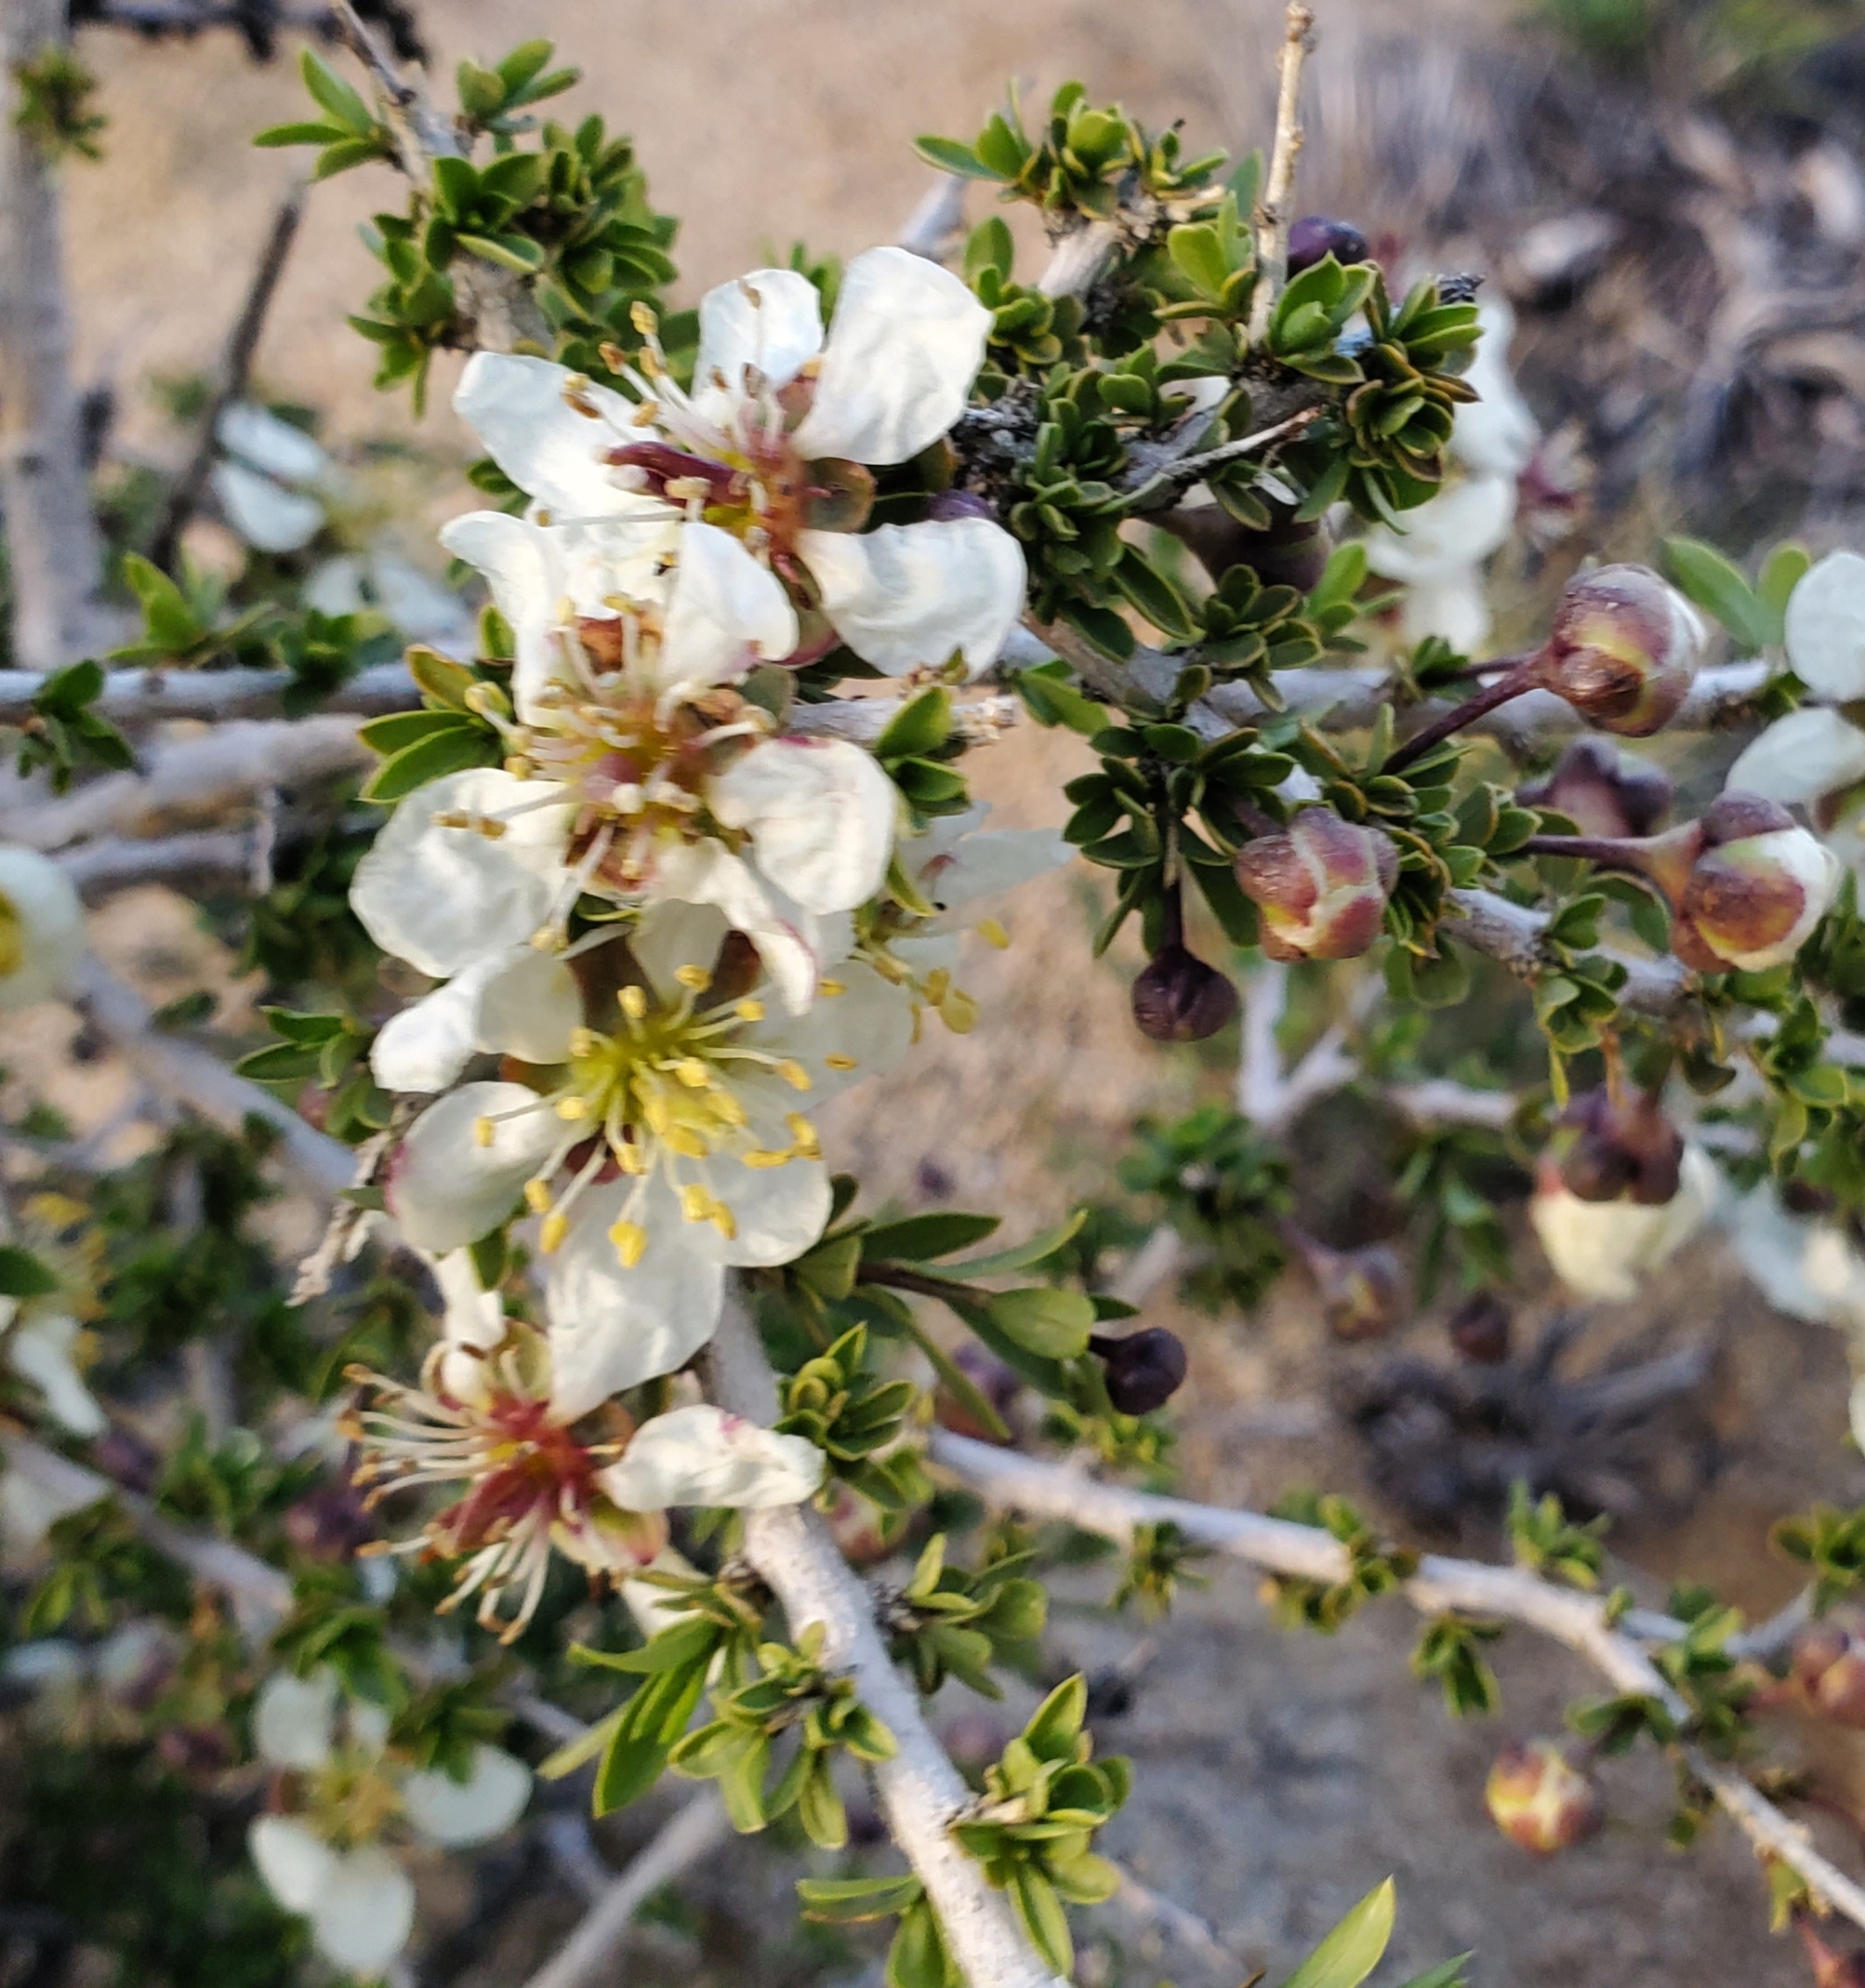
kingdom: Plantae
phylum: Tracheophyta
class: Magnoliopsida
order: Crossosomatales
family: Crossosomataceae
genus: Crossosoma
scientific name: Crossosoma bigelovii
